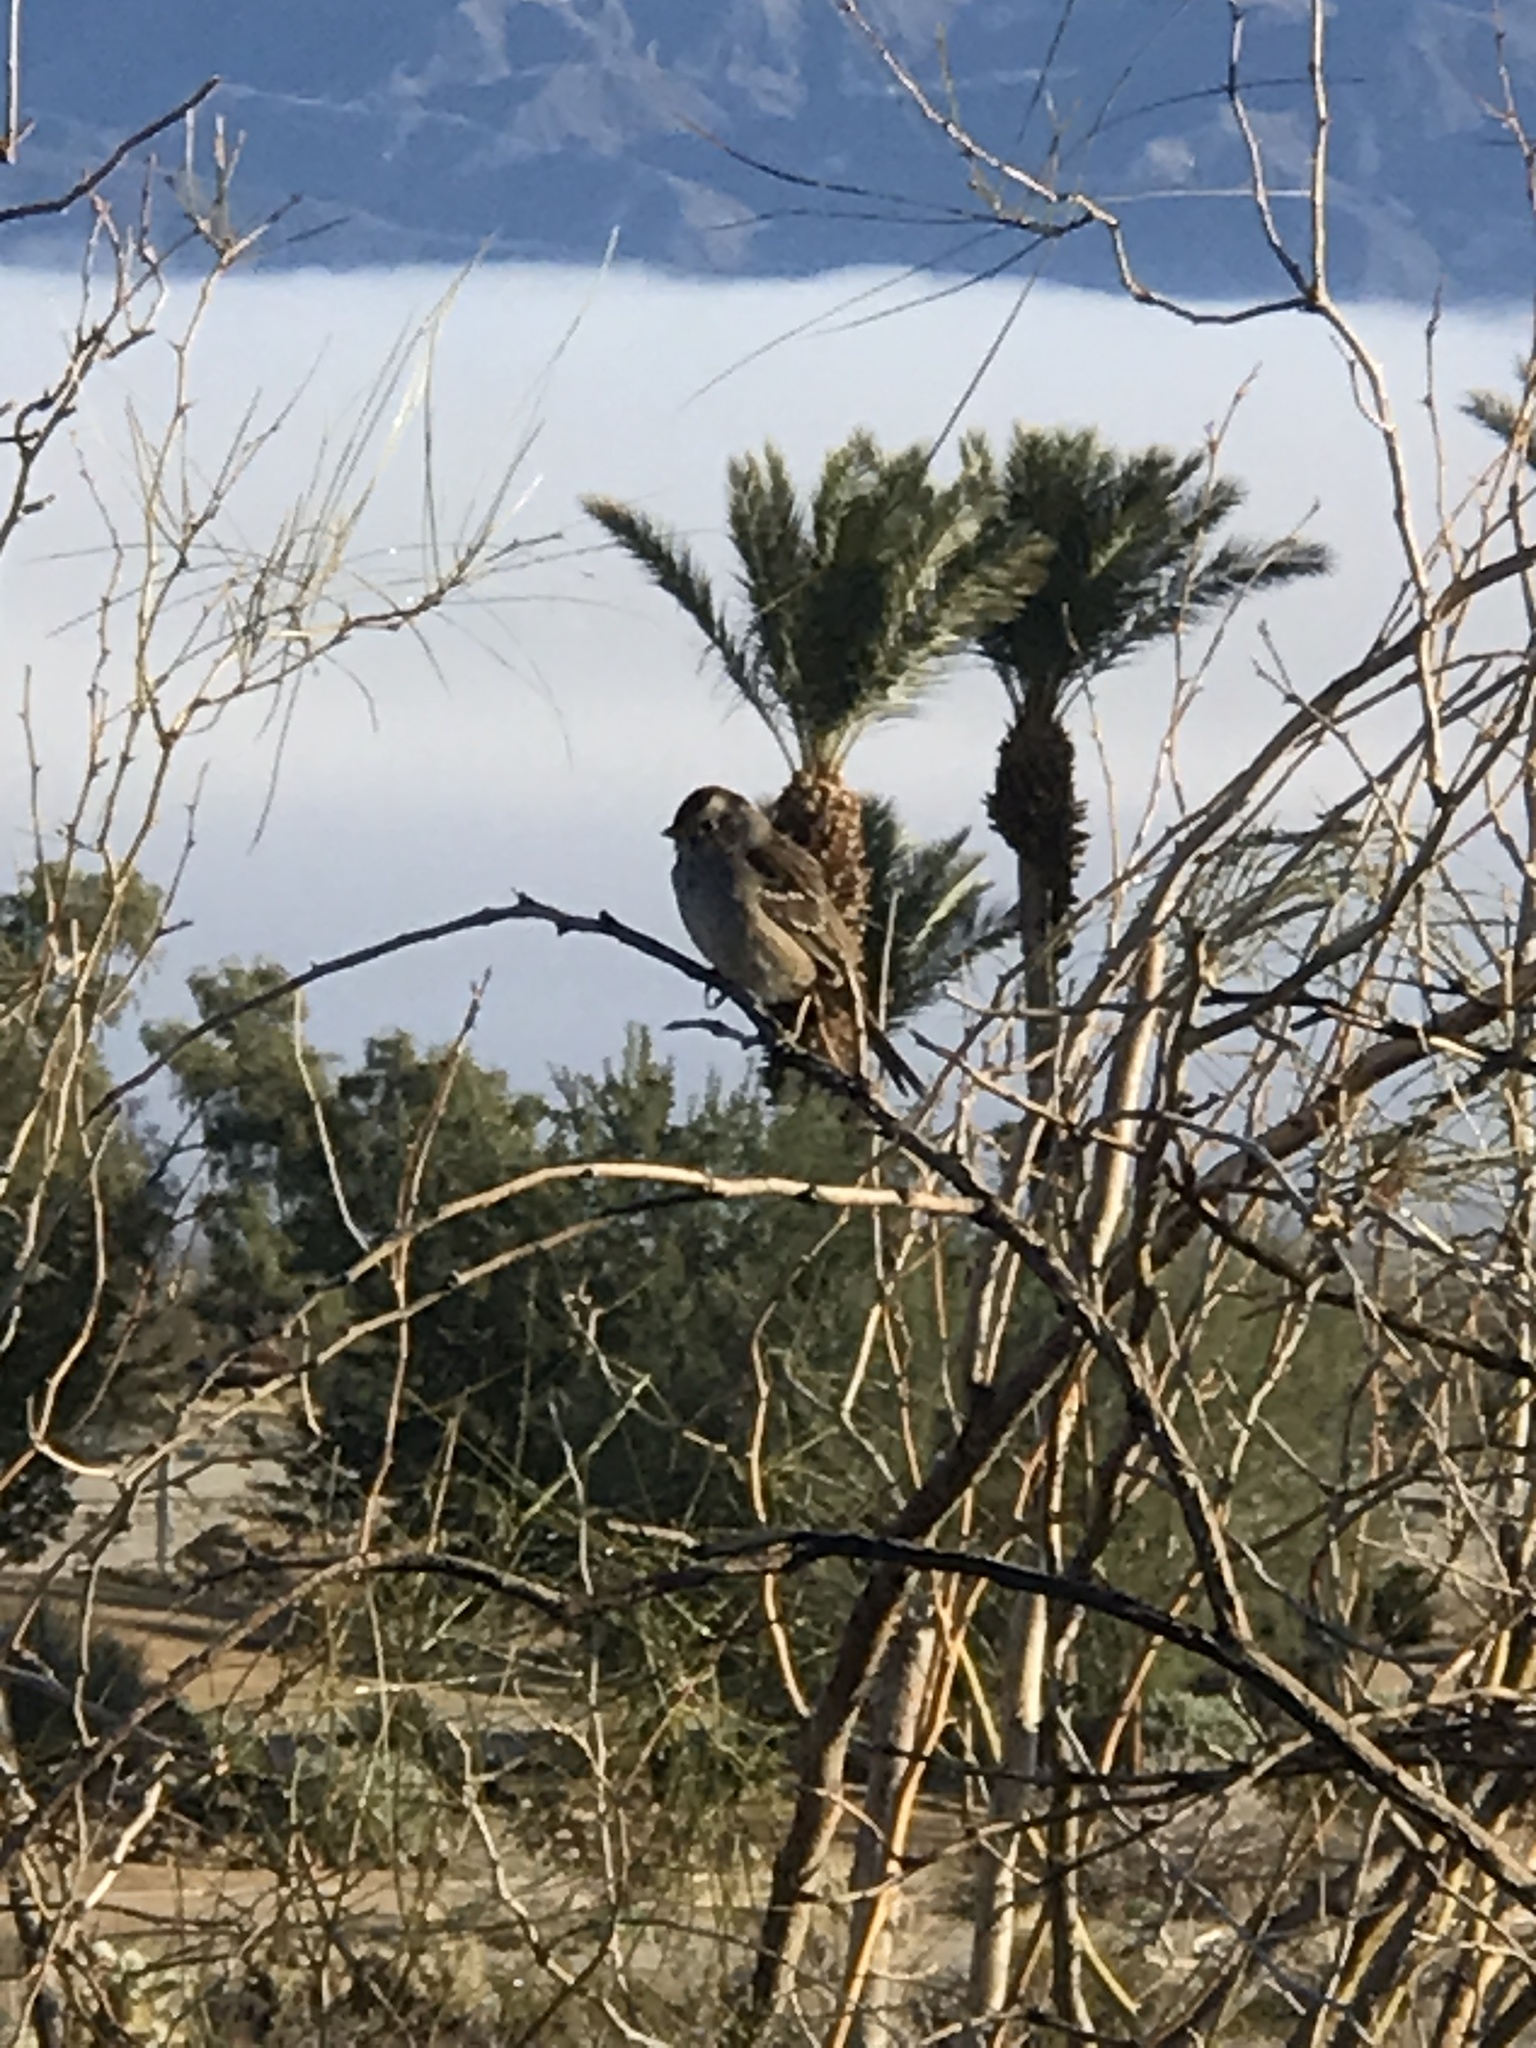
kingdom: Animalia
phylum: Chordata
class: Aves
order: Passeriformes
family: Passerellidae
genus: Zonotrichia
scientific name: Zonotrichia leucophrys
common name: White-crowned sparrow
